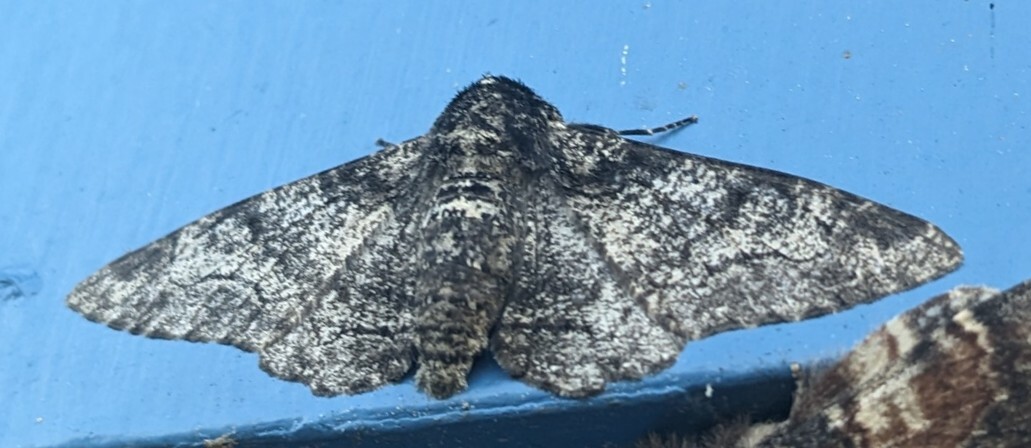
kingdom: Animalia
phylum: Arthropoda
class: Insecta
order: Lepidoptera
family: Geometridae
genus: Biston
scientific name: Biston betularia
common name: Peppered moth
